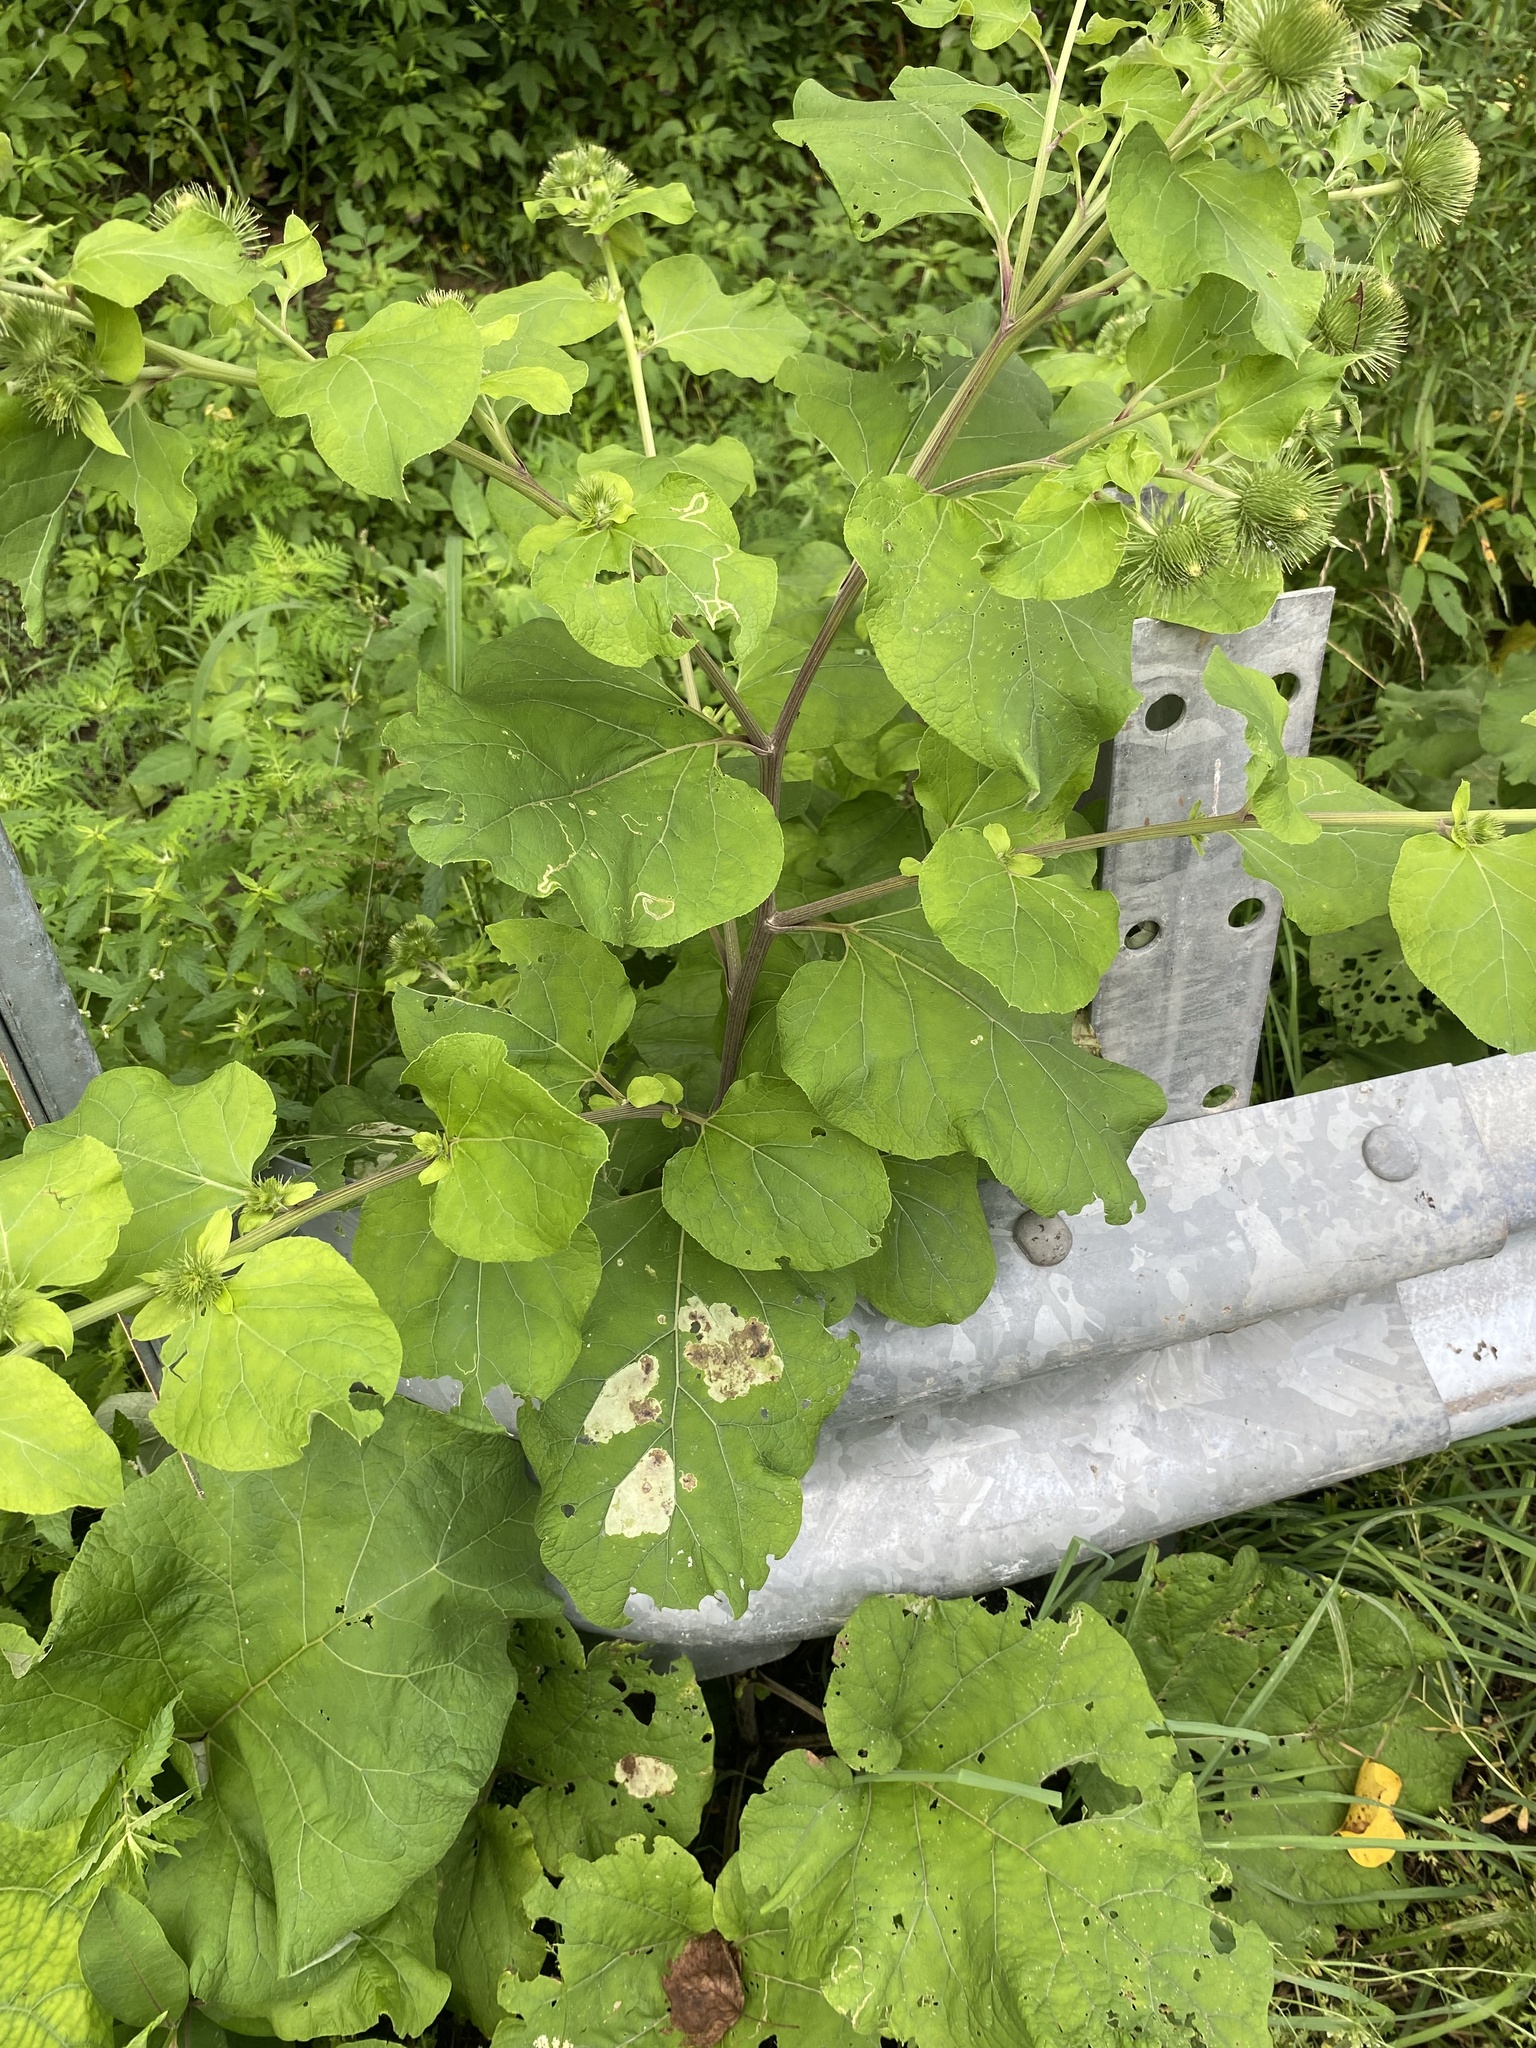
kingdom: Plantae
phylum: Tracheophyta
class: Magnoliopsida
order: Asterales
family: Asteraceae
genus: Arctium
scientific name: Arctium lappa
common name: Greater burdock
